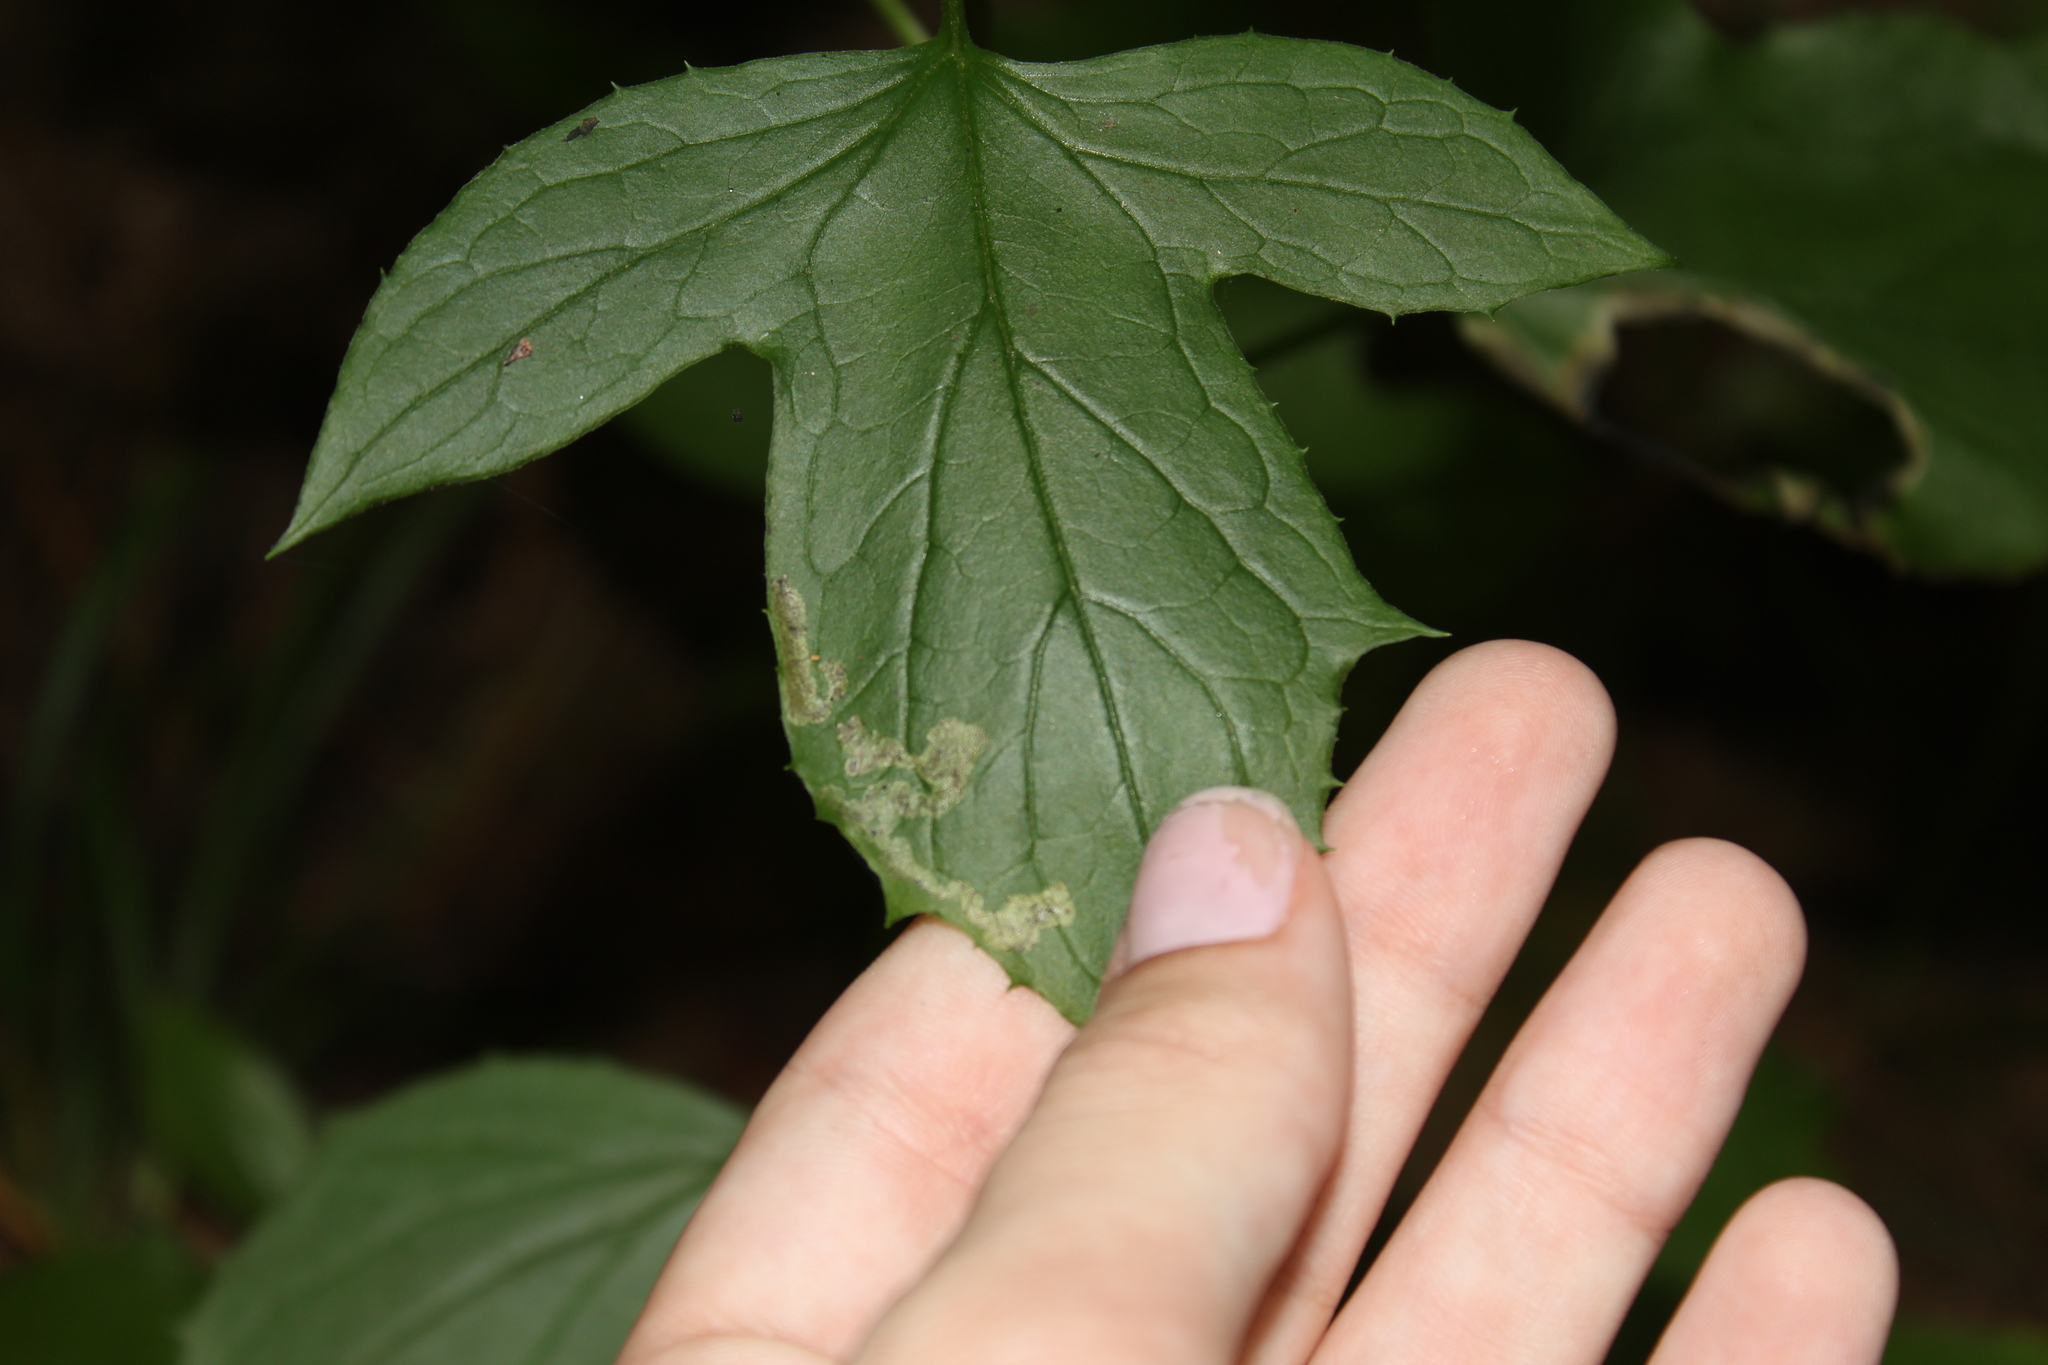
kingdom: Animalia
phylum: Arthropoda
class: Insecta
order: Diptera
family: Agromyzidae
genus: Liriomyza
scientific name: Liriomyza orilliensis
